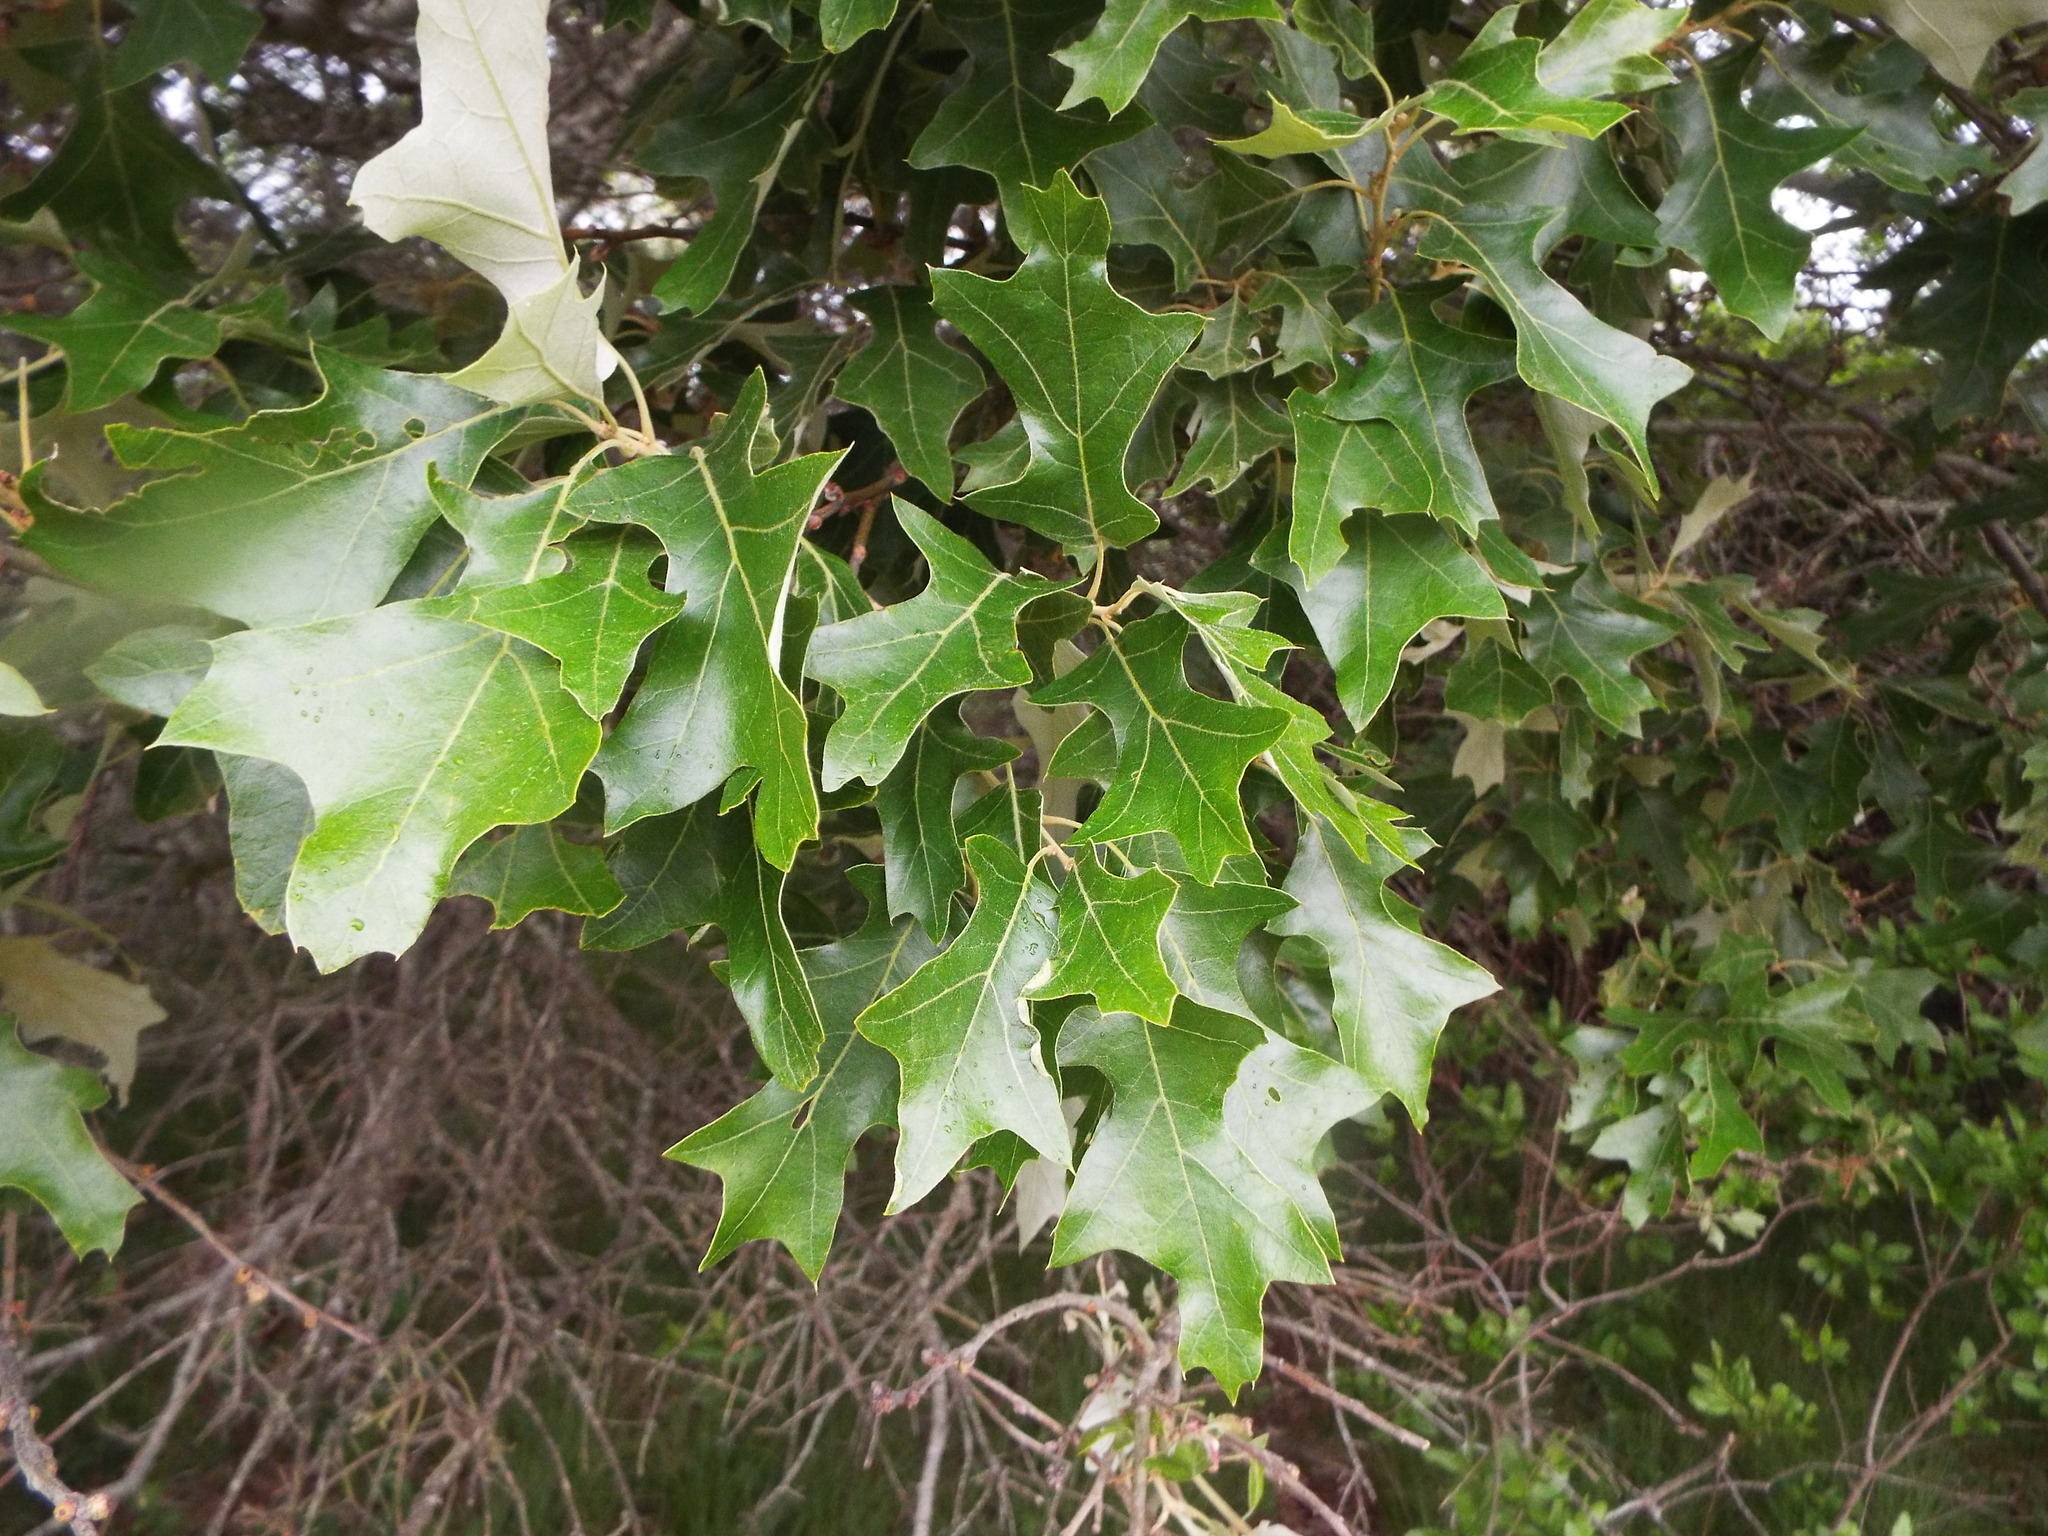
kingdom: Plantae
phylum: Tracheophyta
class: Magnoliopsida
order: Fagales
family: Fagaceae
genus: Quercus
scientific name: Quercus ilicifolia
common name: Bear oak
